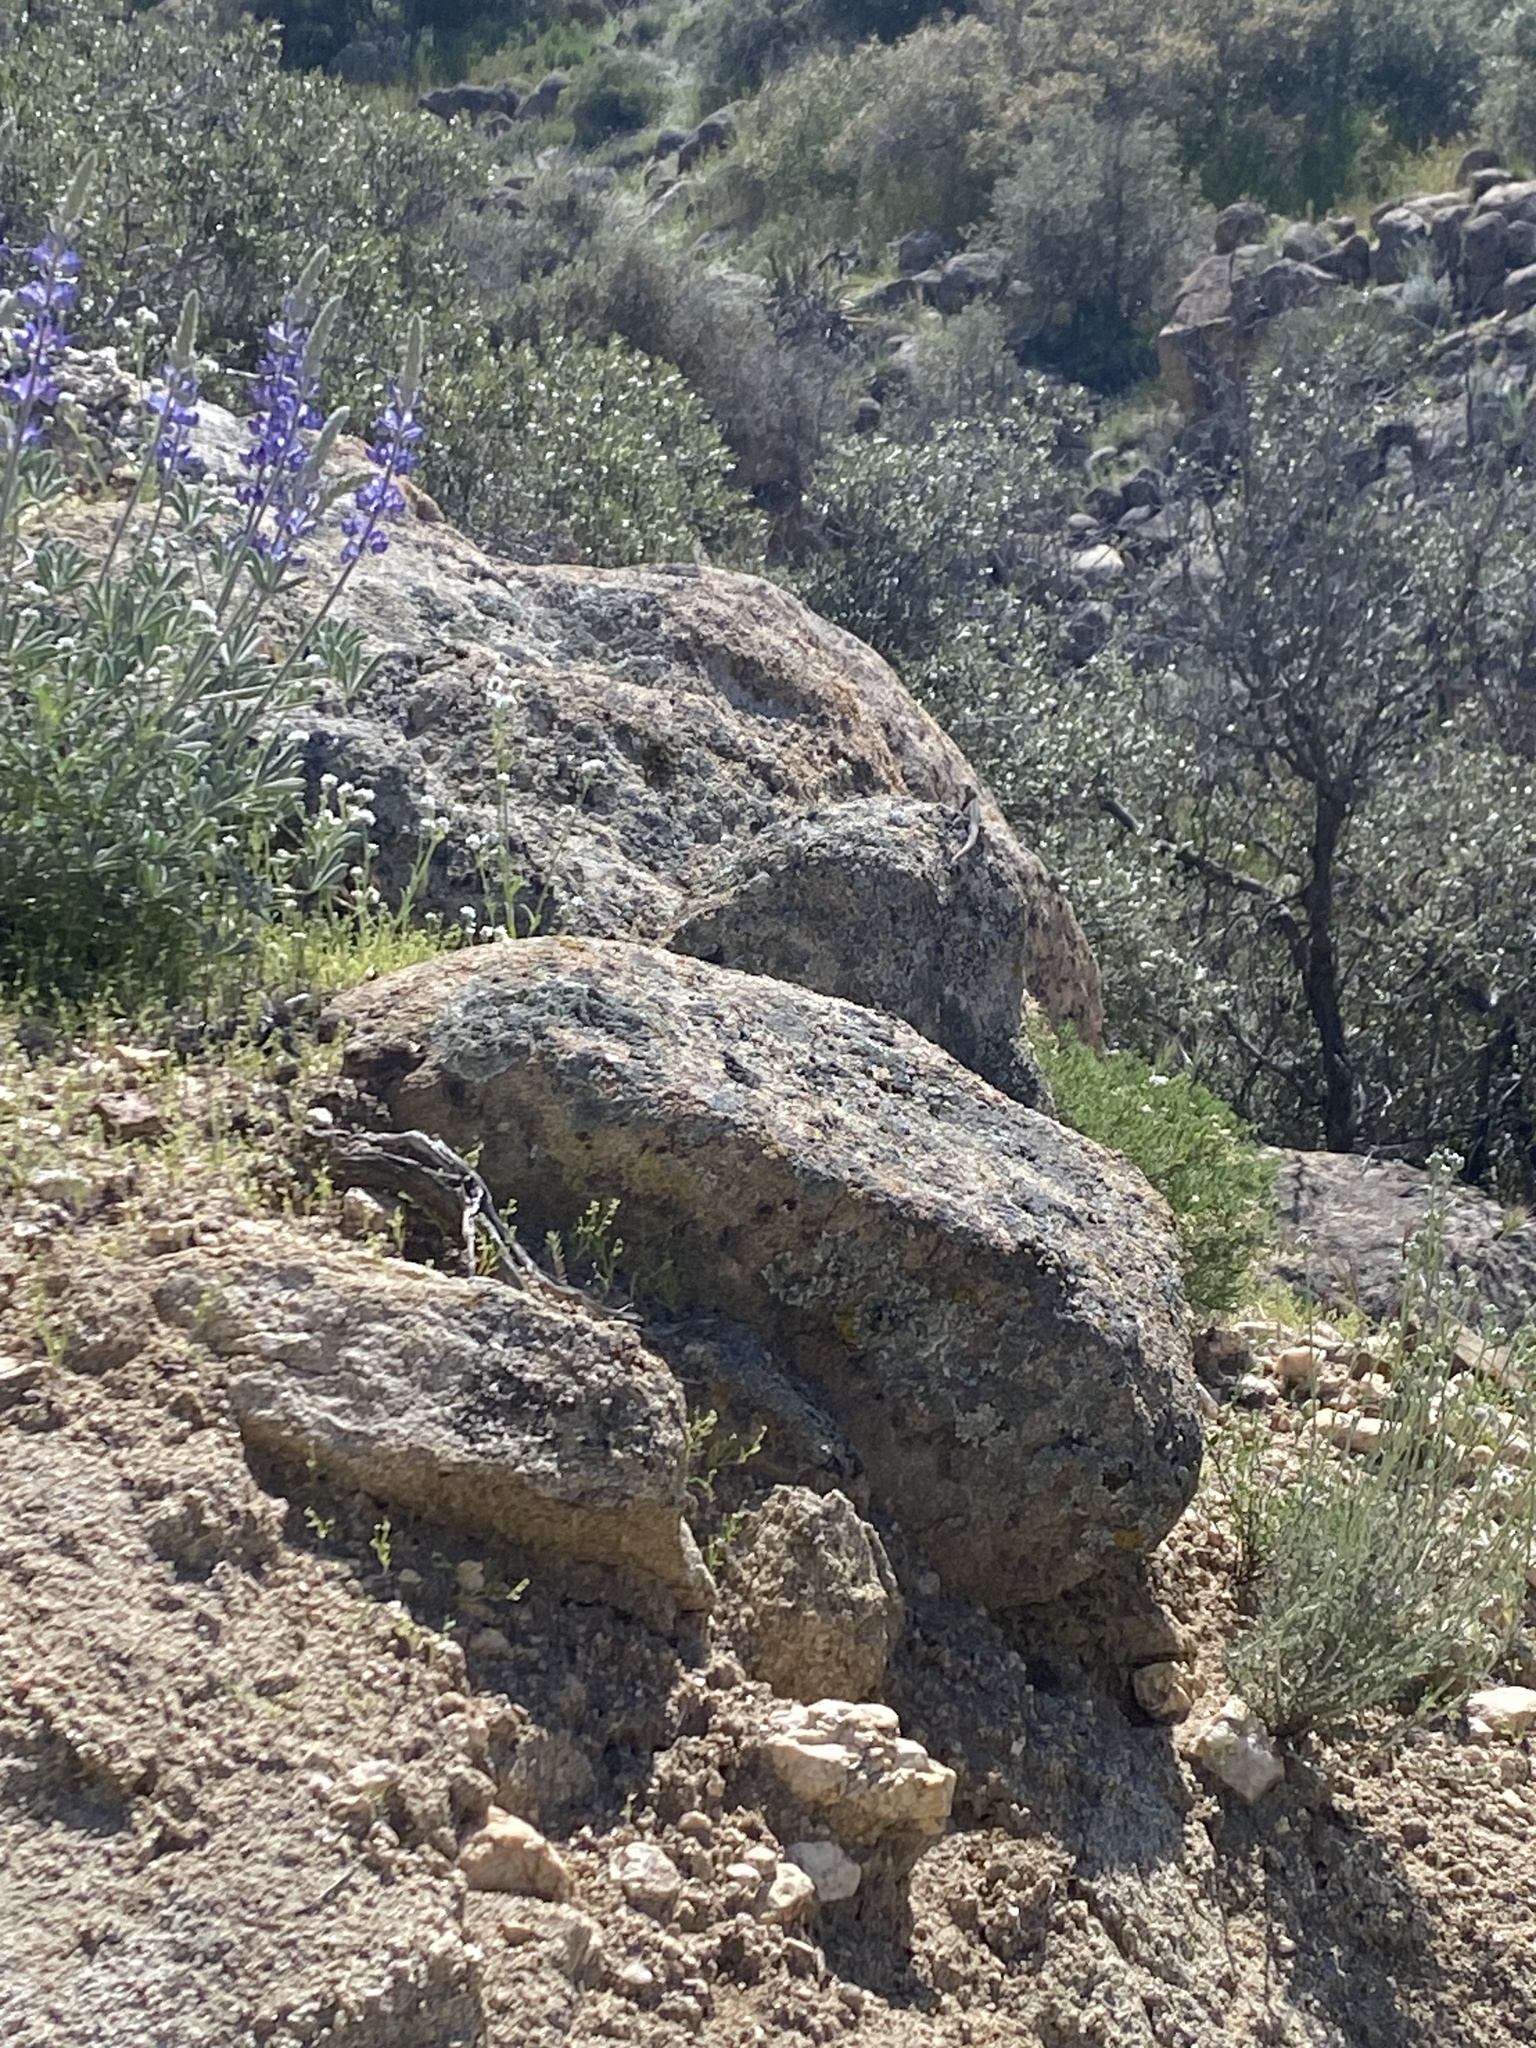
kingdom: Animalia
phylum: Chordata
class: Squamata
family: Phrynosomatidae
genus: Uta
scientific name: Uta stansburiana
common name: Side-blotched lizard
